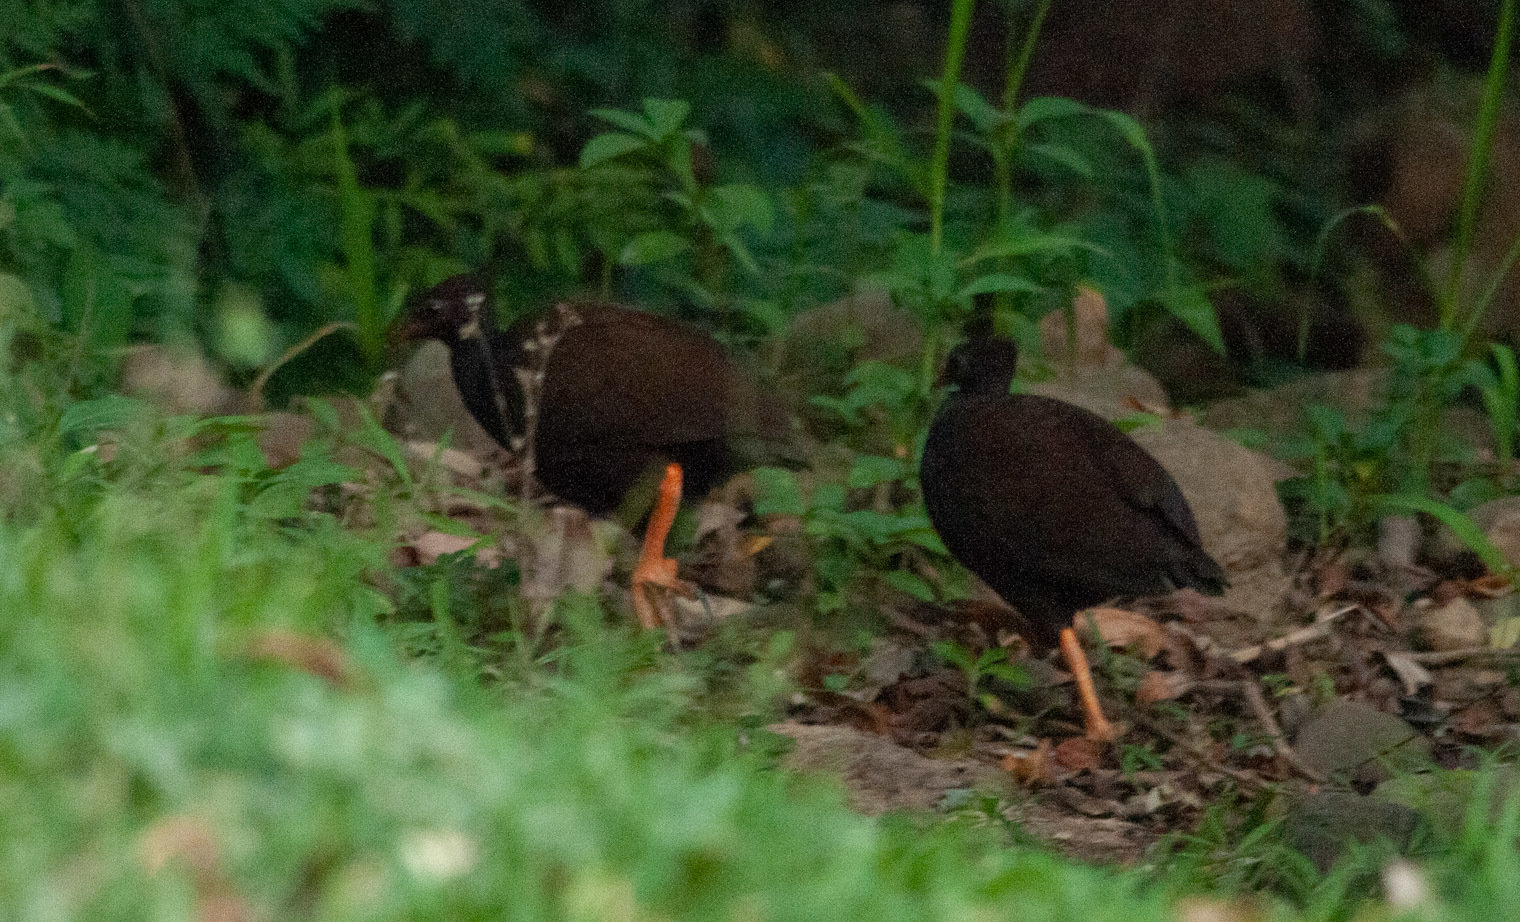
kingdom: Animalia
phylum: Chordata
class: Aves
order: Galliformes
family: Megapodiidae
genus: Megapodius
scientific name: Megapodius reinwardt
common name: Orange-footed scrubfowl
